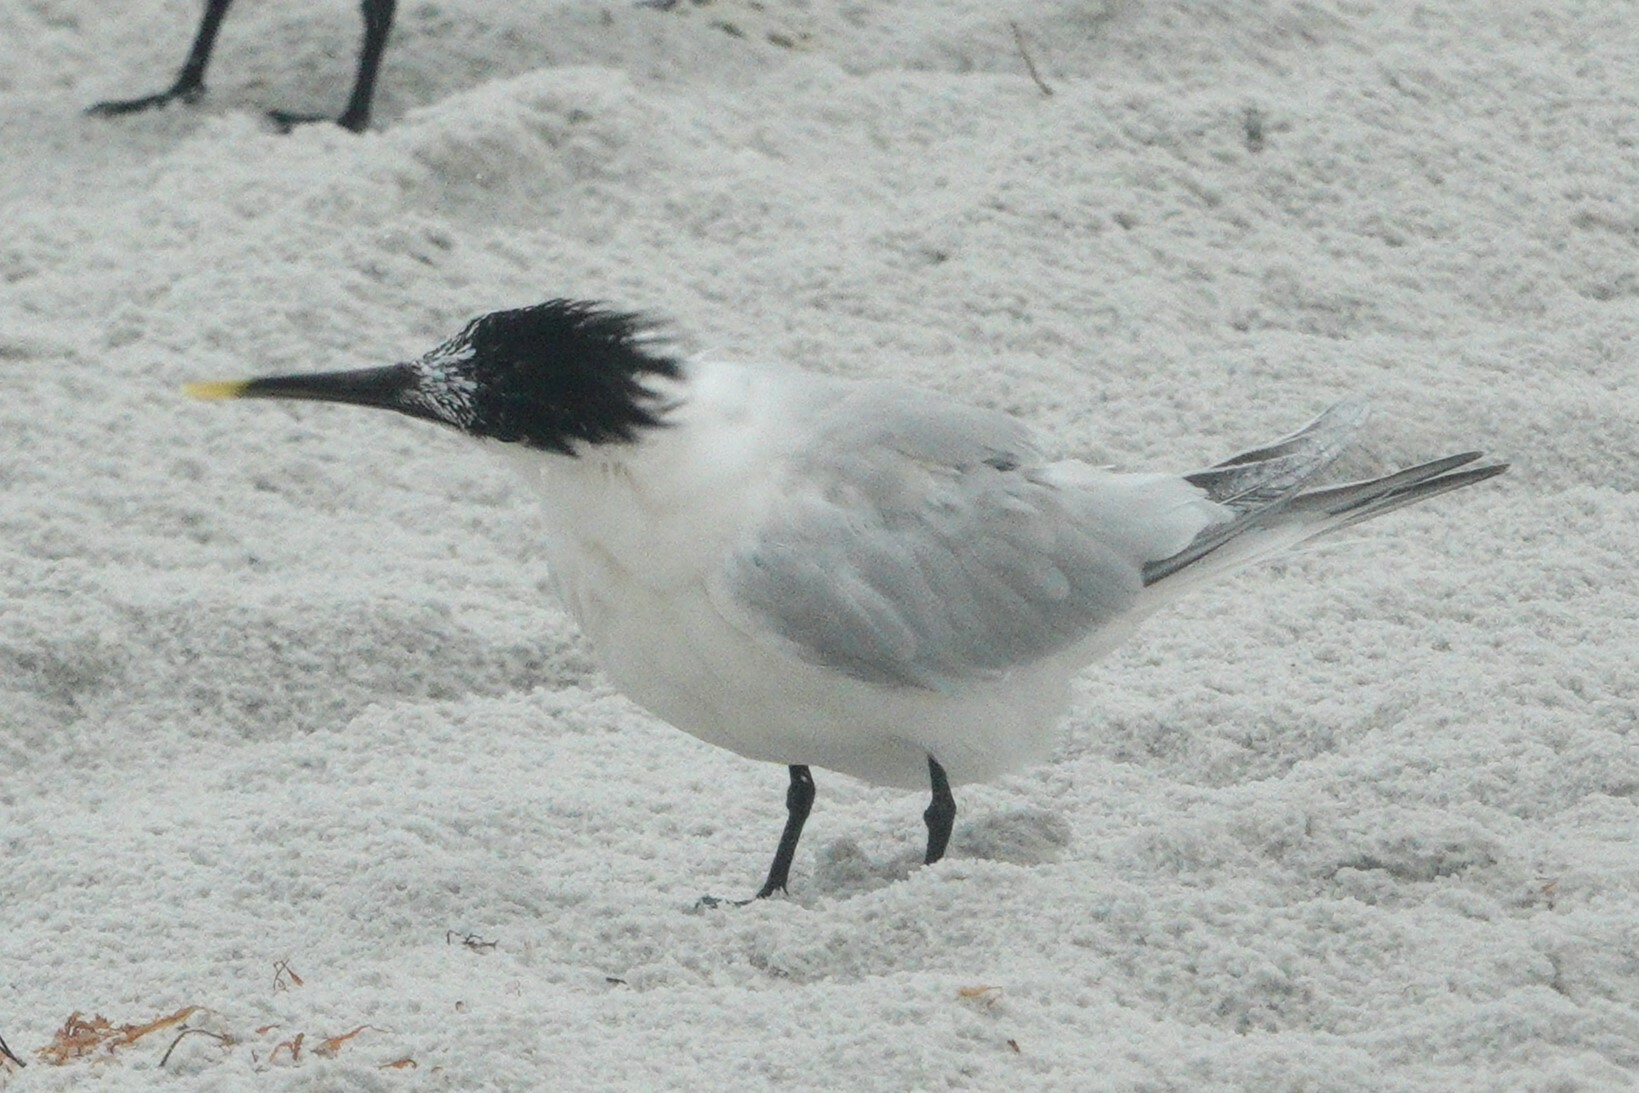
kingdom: Animalia
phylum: Chordata
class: Aves
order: Charadriiformes
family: Laridae
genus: Thalasseus
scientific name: Thalasseus acuflavidus
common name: Cabot's tern
